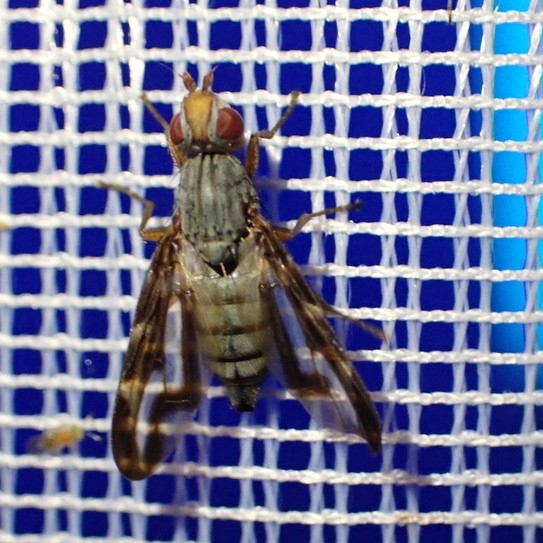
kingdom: Animalia
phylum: Arthropoda
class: Insecta
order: Diptera
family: Ulidiidae
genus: Otites
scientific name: Otites lamed
